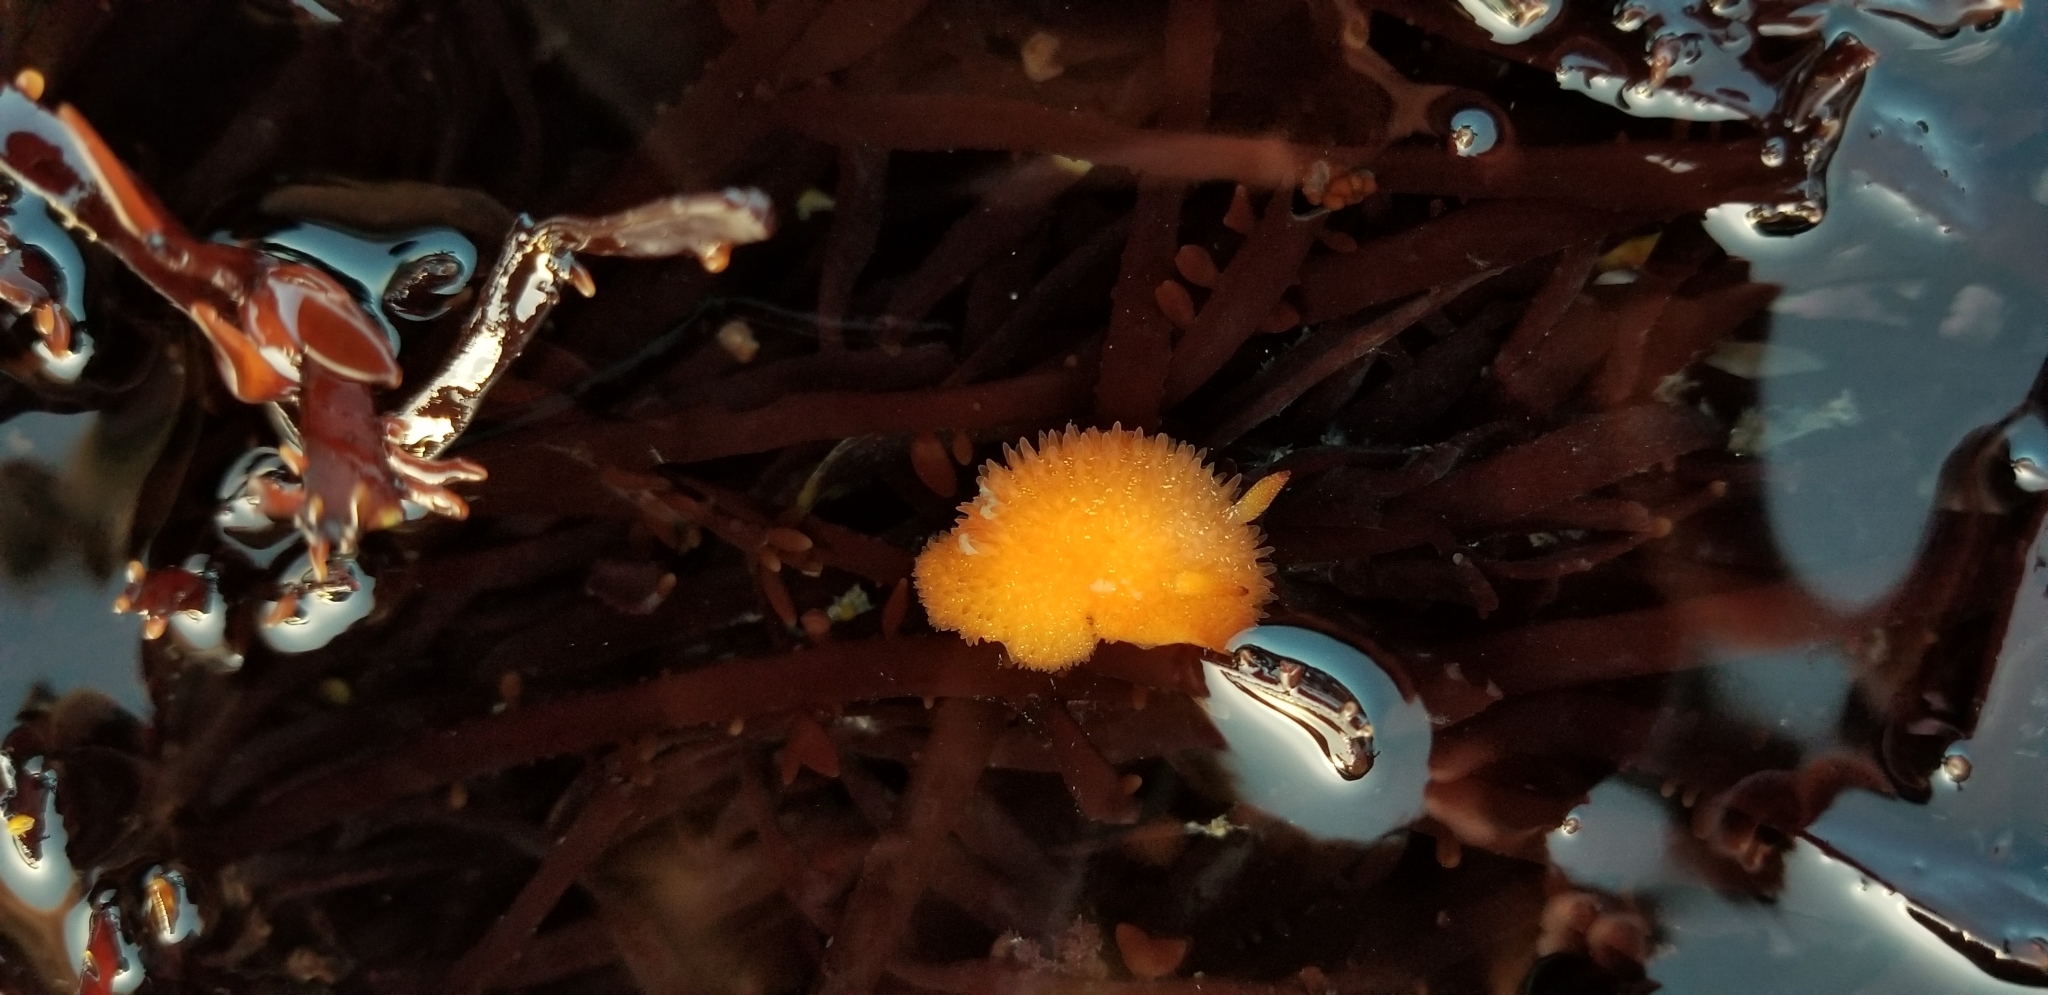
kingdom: Animalia
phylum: Mollusca
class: Gastropoda
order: Nudibranchia
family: Onchidorididae
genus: Acanthodoris
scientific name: Acanthodoris lutea
